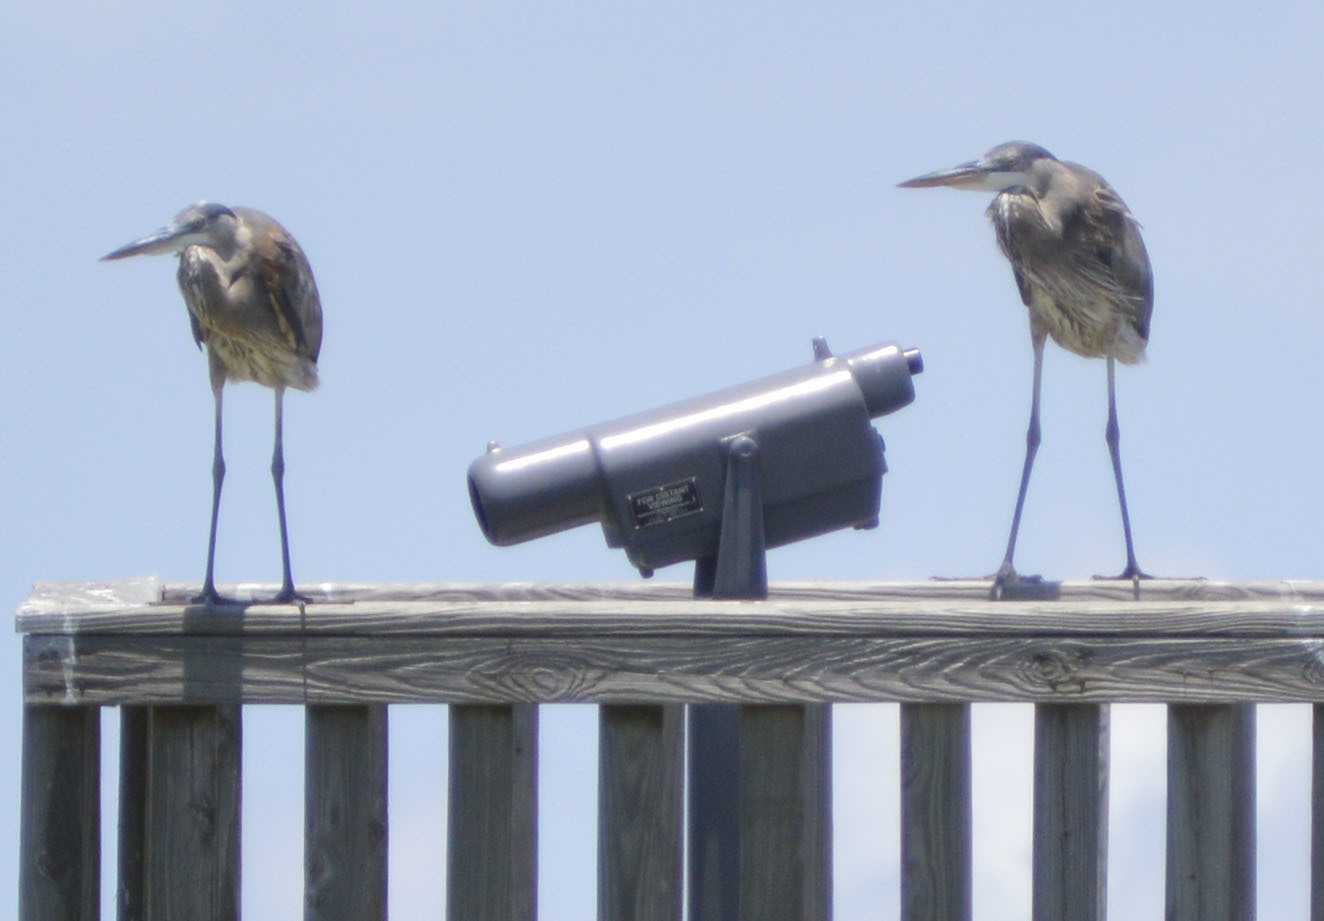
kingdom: Animalia
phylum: Chordata
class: Aves
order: Pelecaniformes
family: Ardeidae
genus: Ardea
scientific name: Ardea herodias
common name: Great blue heron
